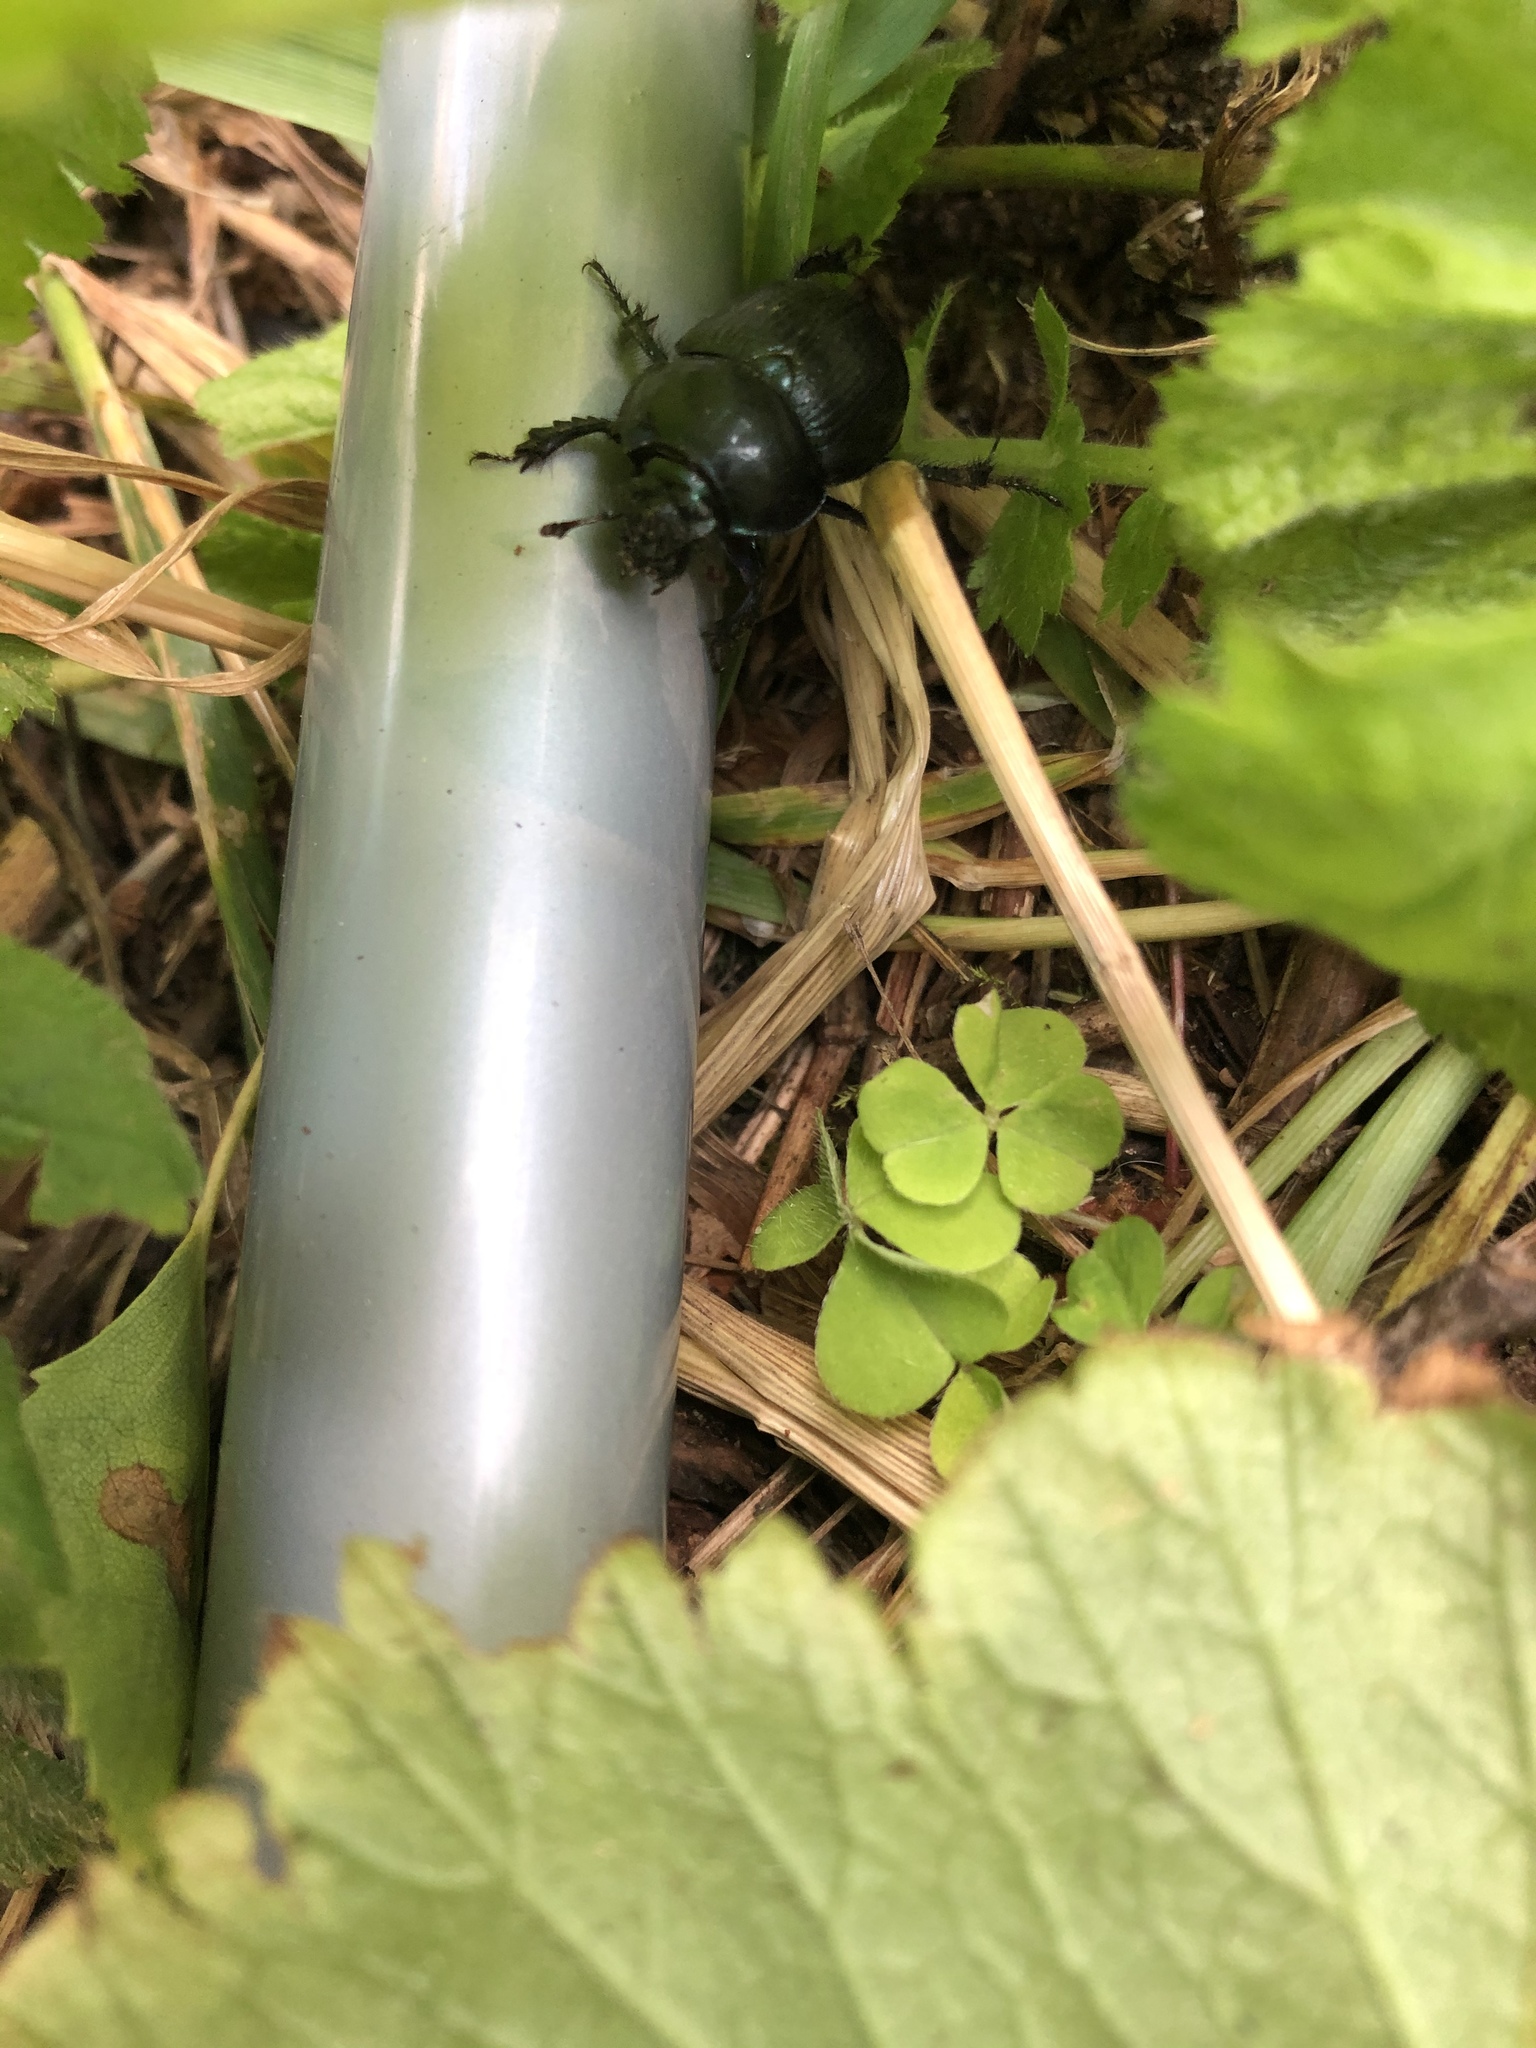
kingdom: Animalia
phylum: Arthropoda
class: Insecta
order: Coleoptera
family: Geotrupidae
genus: Anoplotrupes
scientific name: Anoplotrupes stercorosus
